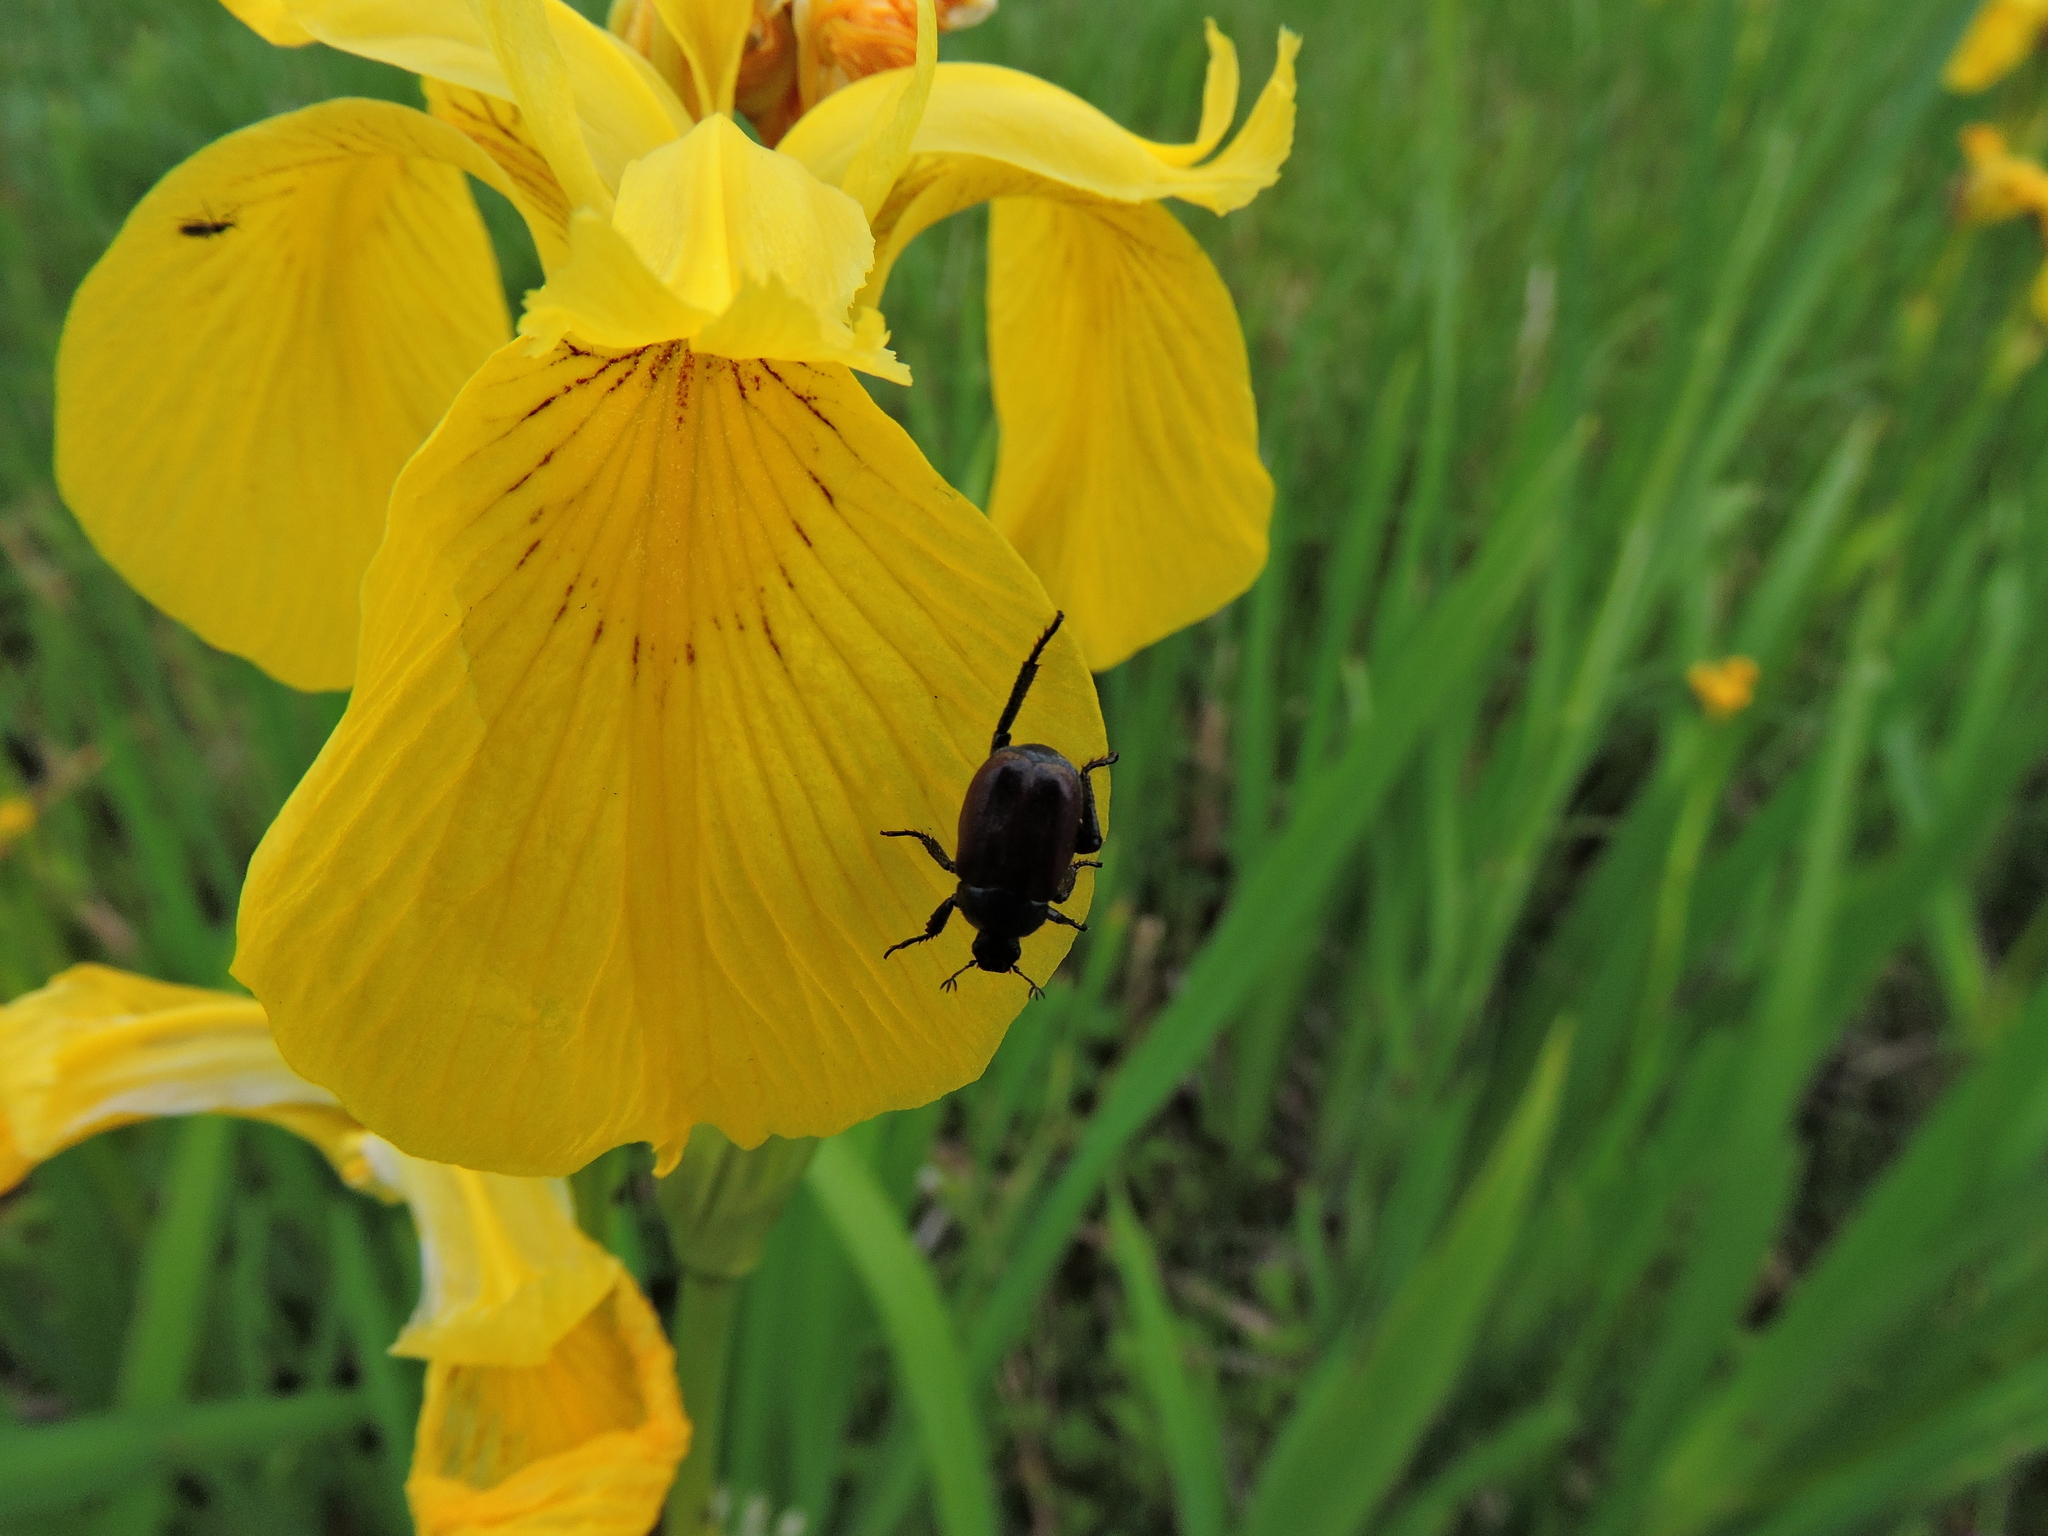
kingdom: Animalia
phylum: Arthropoda
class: Insecta
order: Coleoptera
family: Scarabaeidae
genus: Hoplia
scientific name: Hoplia philanthus
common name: Welsh chafer
